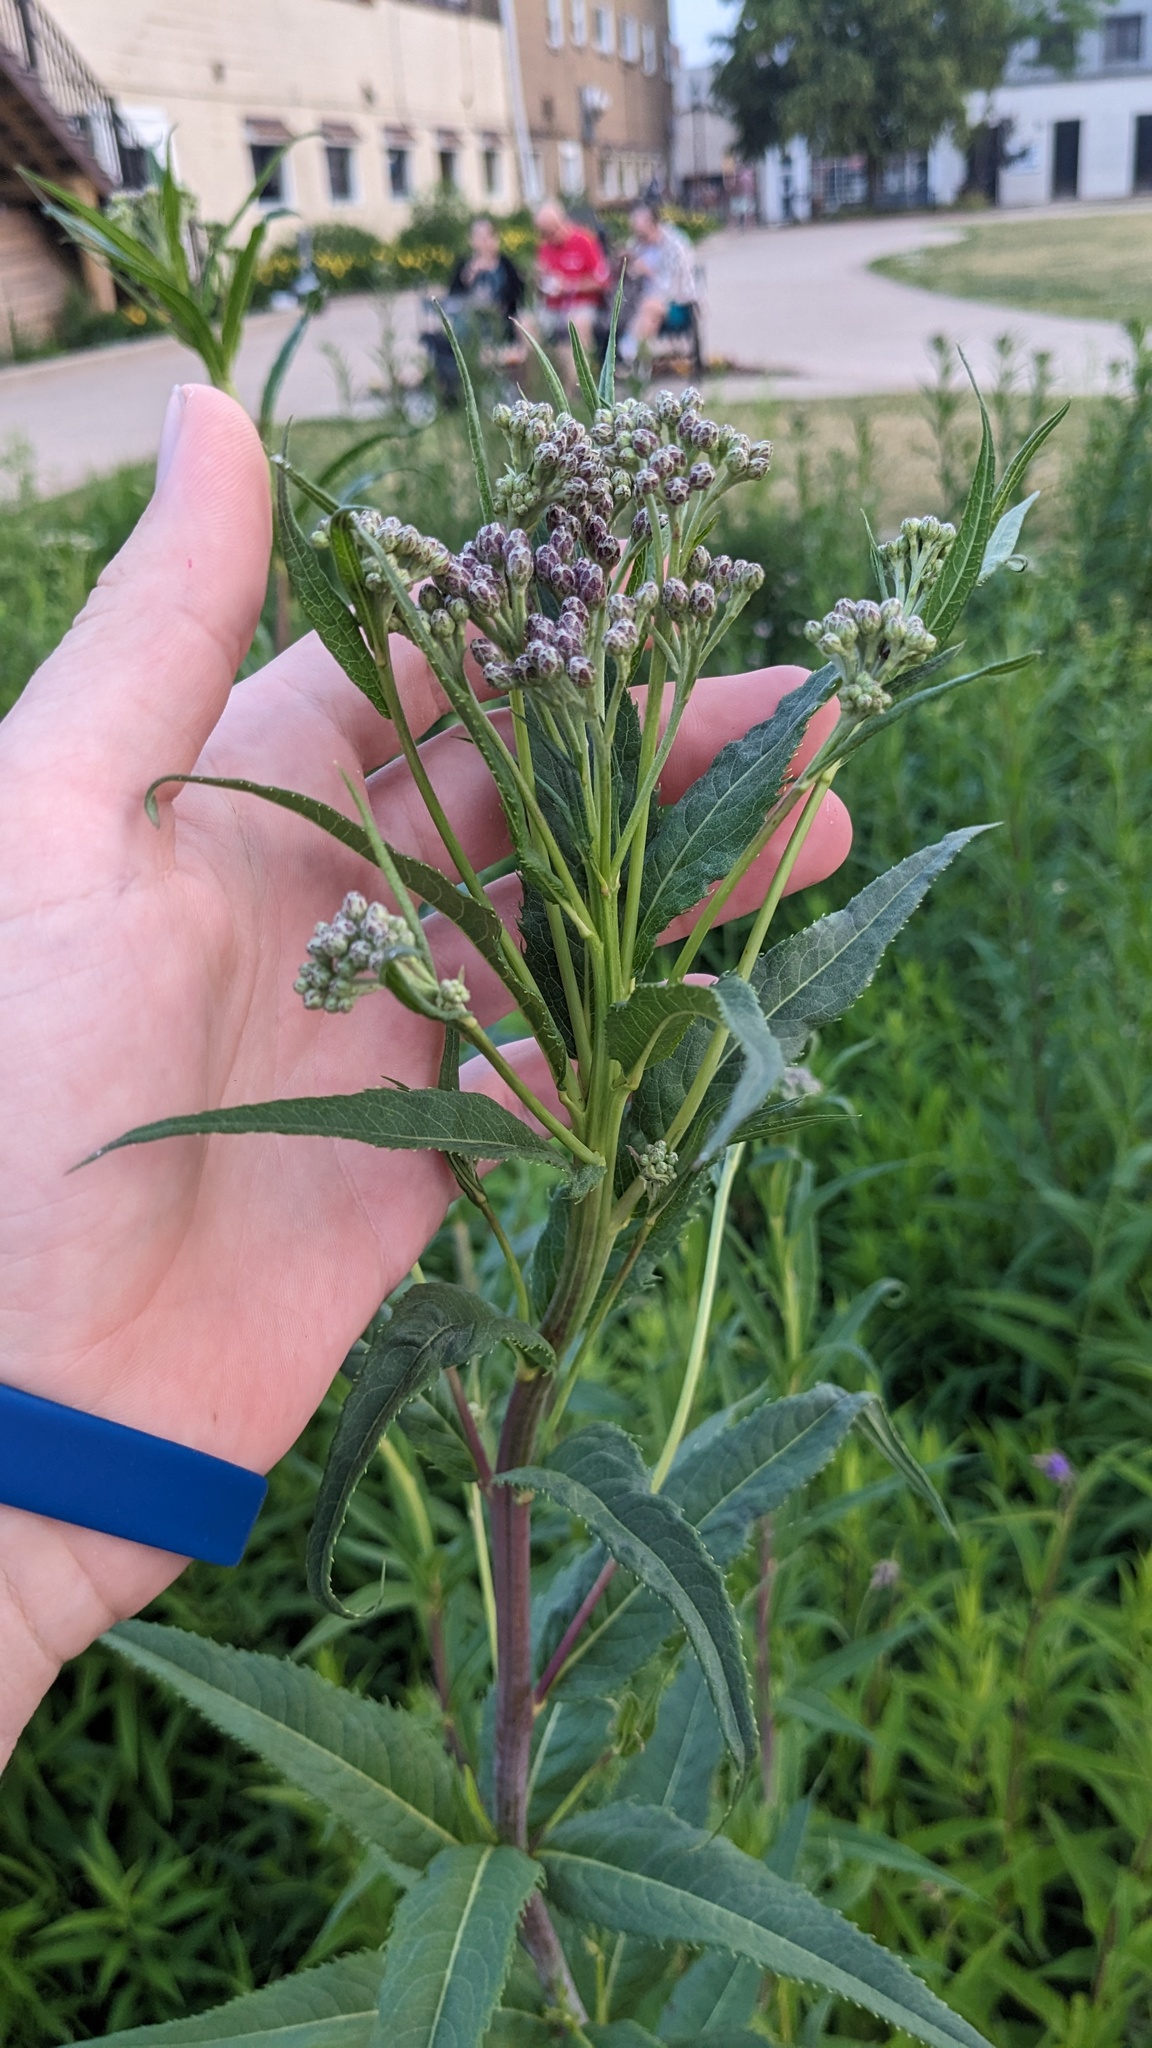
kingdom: Plantae
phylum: Tracheophyta
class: Magnoliopsida
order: Asterales
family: Asteraceae
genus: Vernonia
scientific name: Vernonia fasciculata
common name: Fascicled ironweed
